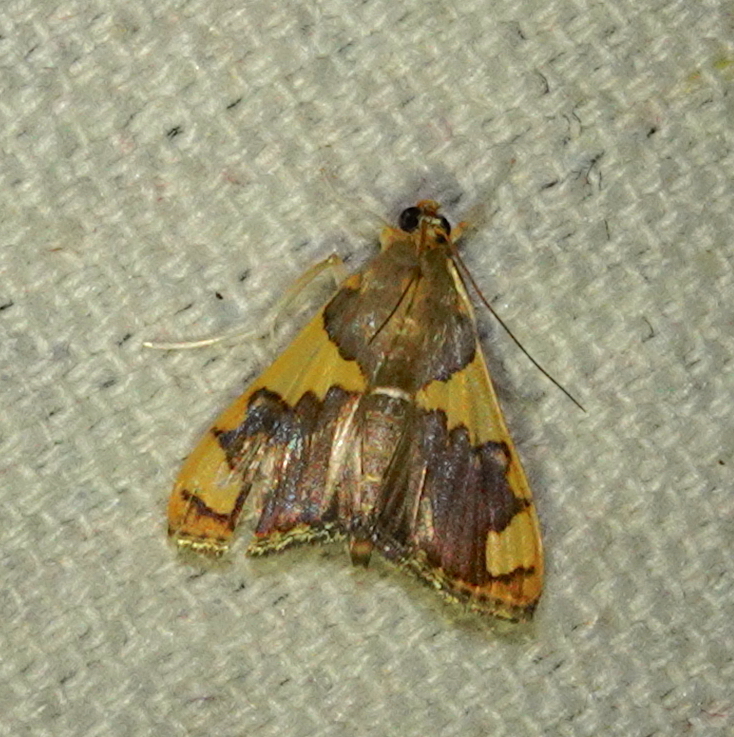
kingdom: Animalia
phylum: Arthropoda
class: Insecta
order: Lepidoptera
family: Crambidae
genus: Rehimena
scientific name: Rehimena phrynealis
